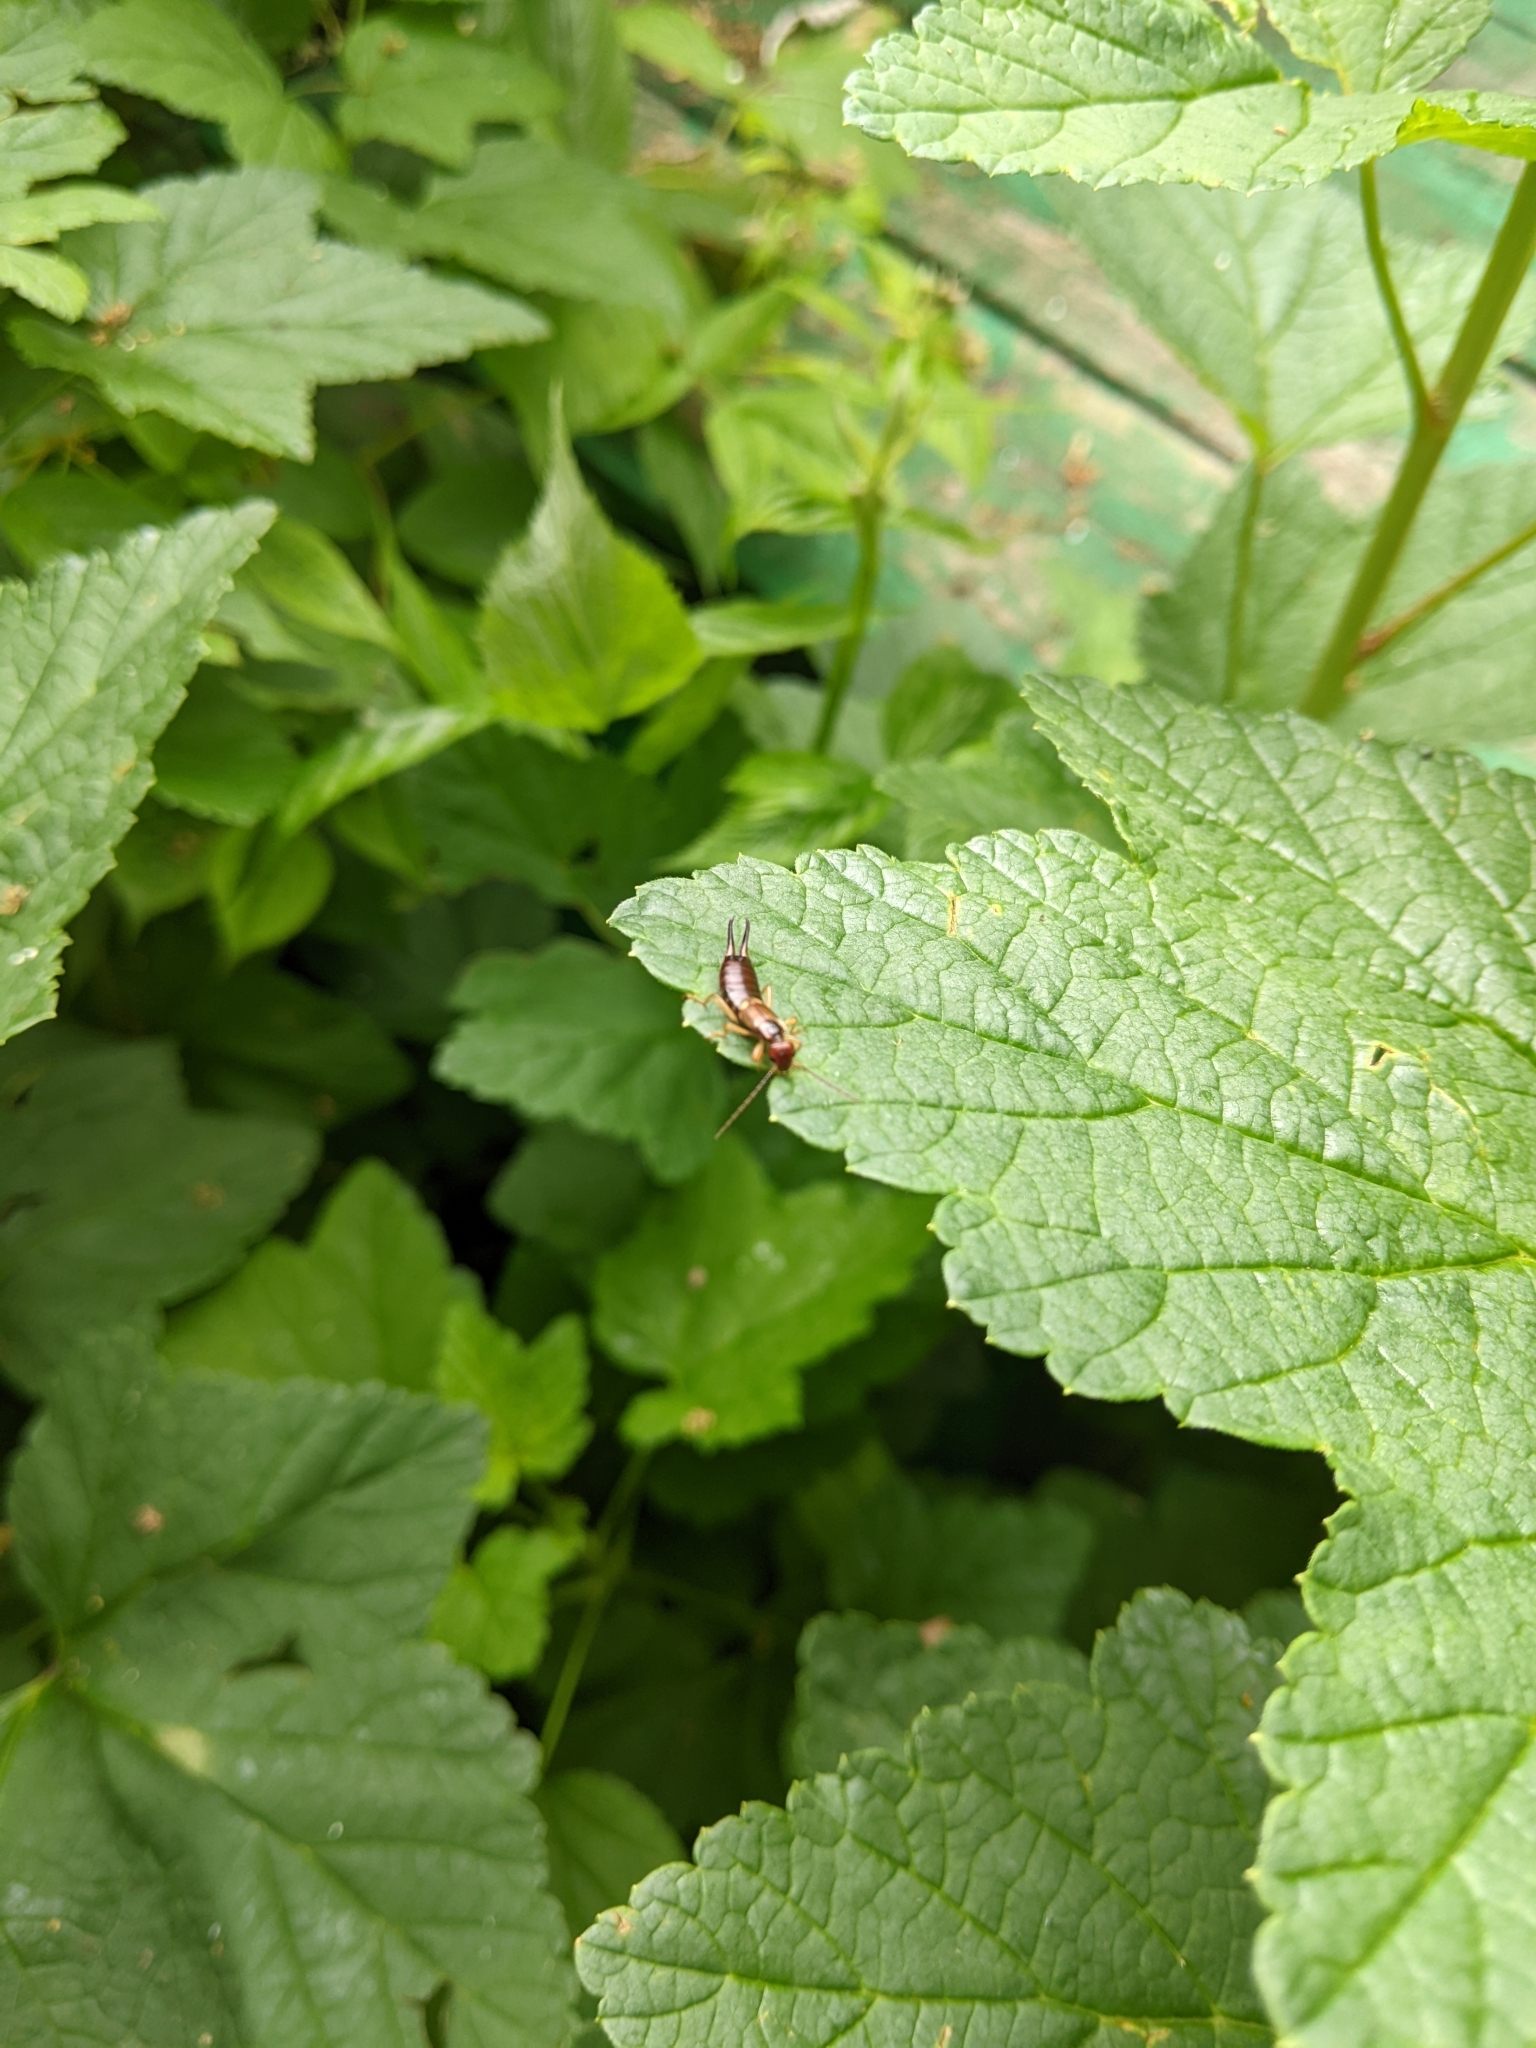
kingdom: Animalia
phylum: Arthropoda
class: Insecta
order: Dermaptera
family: Forficulidae
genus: Forficula
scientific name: Forficula
